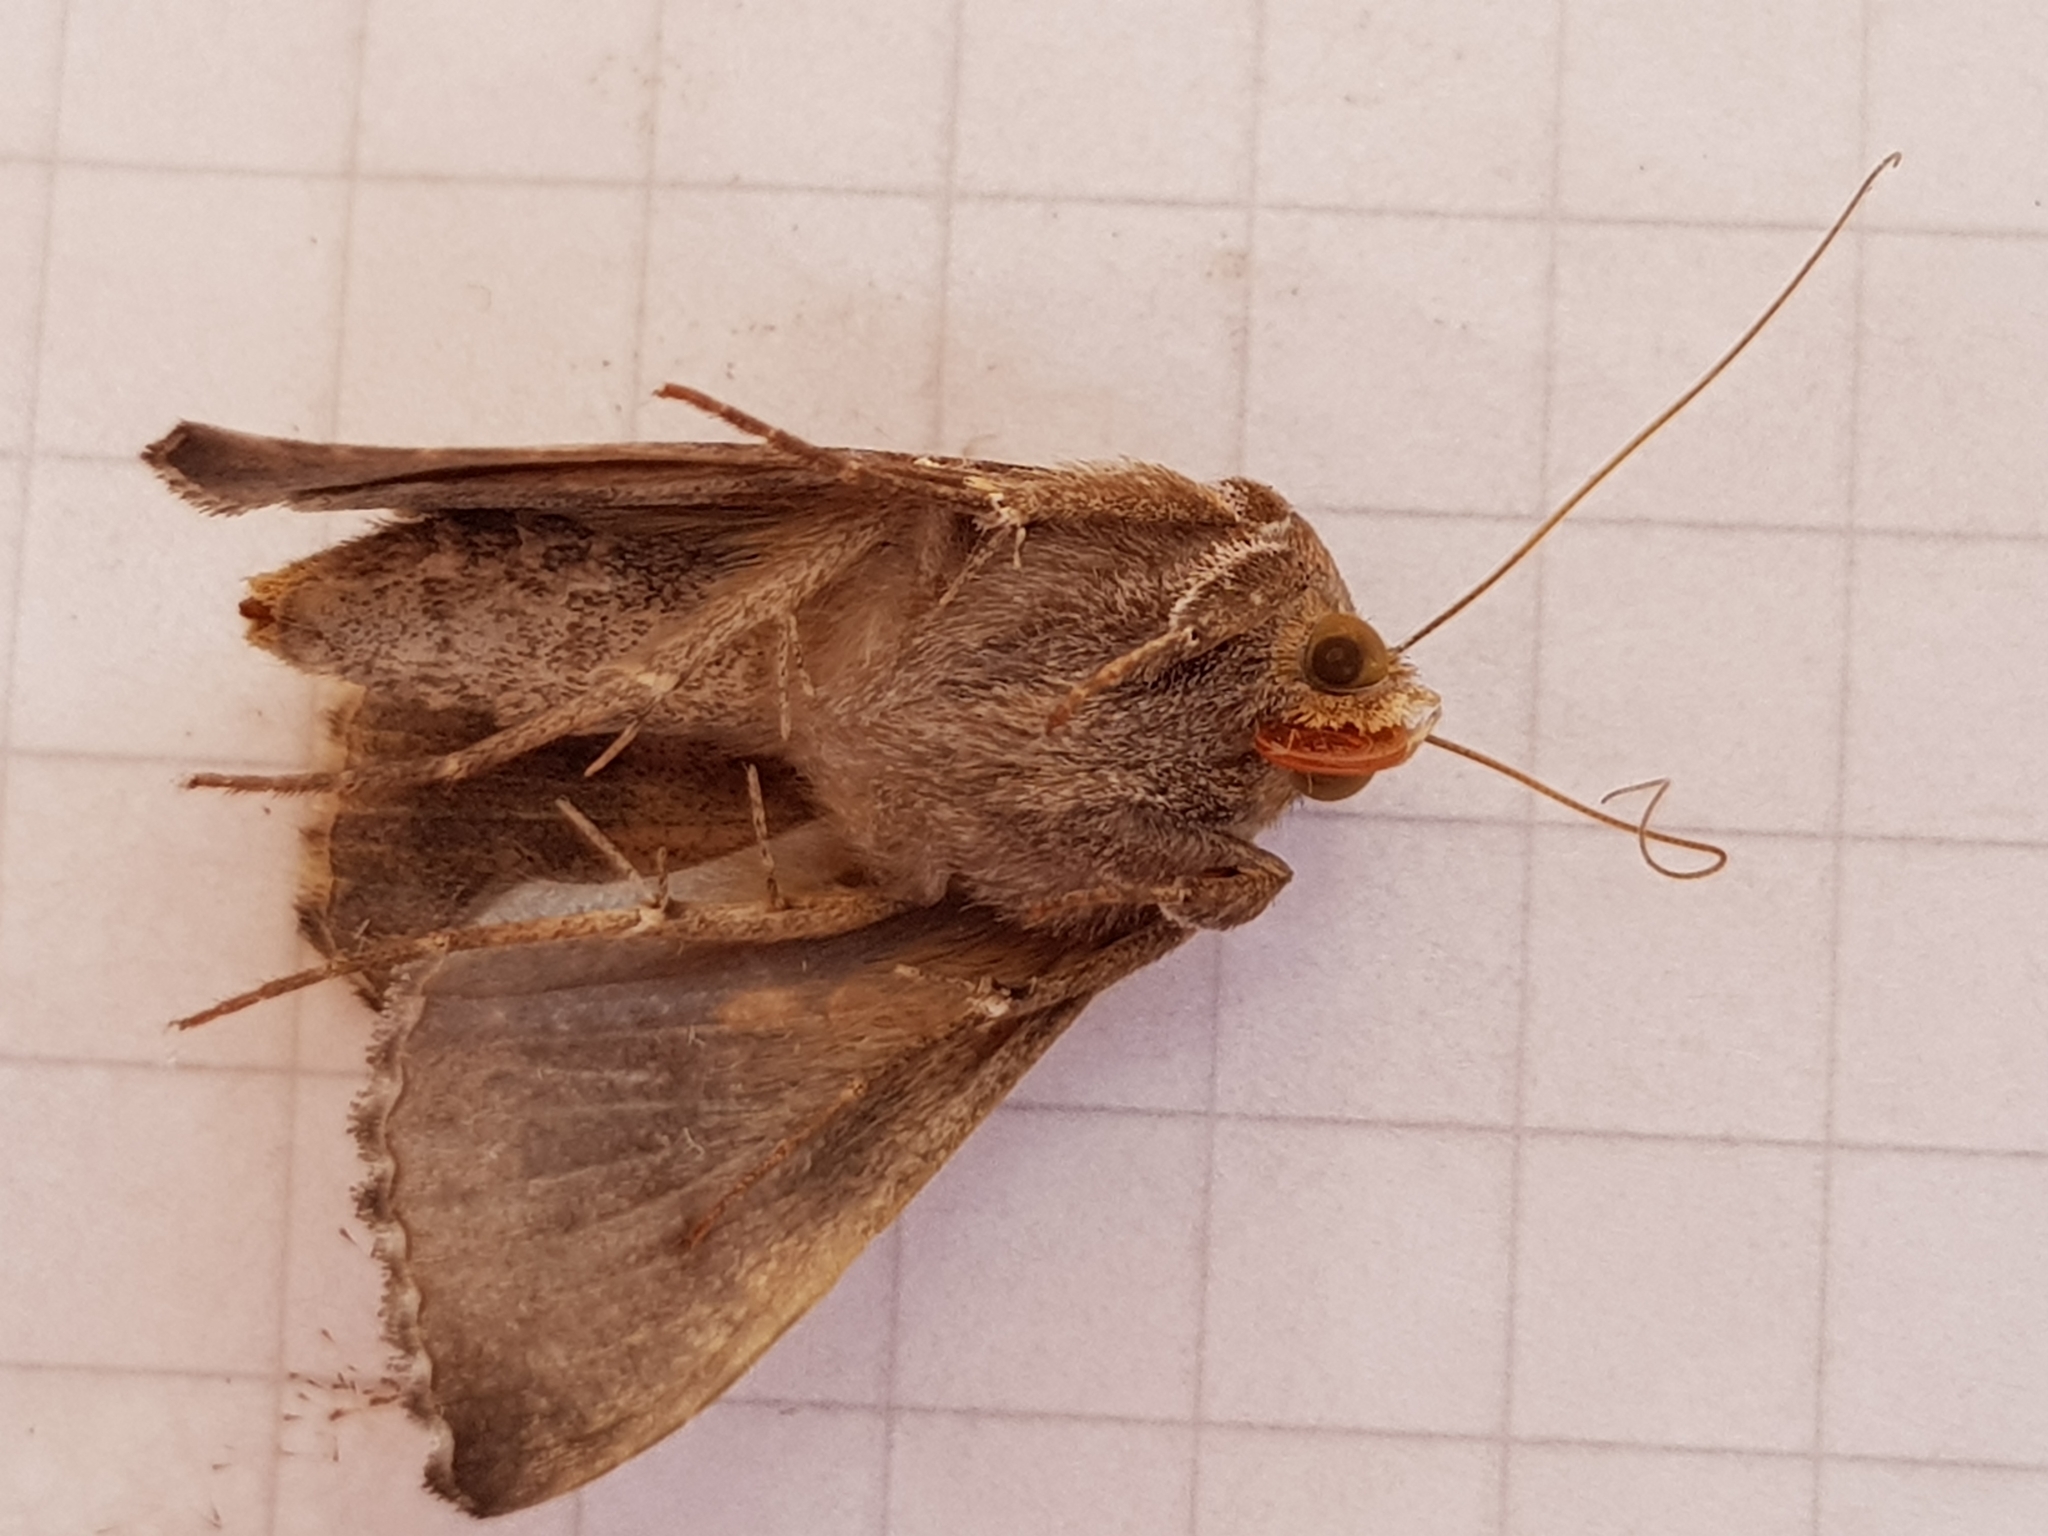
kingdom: Animalia
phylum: Arthropoda
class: Insecta
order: Lepidoptera
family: Noctuidae
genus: Chrysodeixis
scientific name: Chrysodeixis eriosoma
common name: Green garden looper
